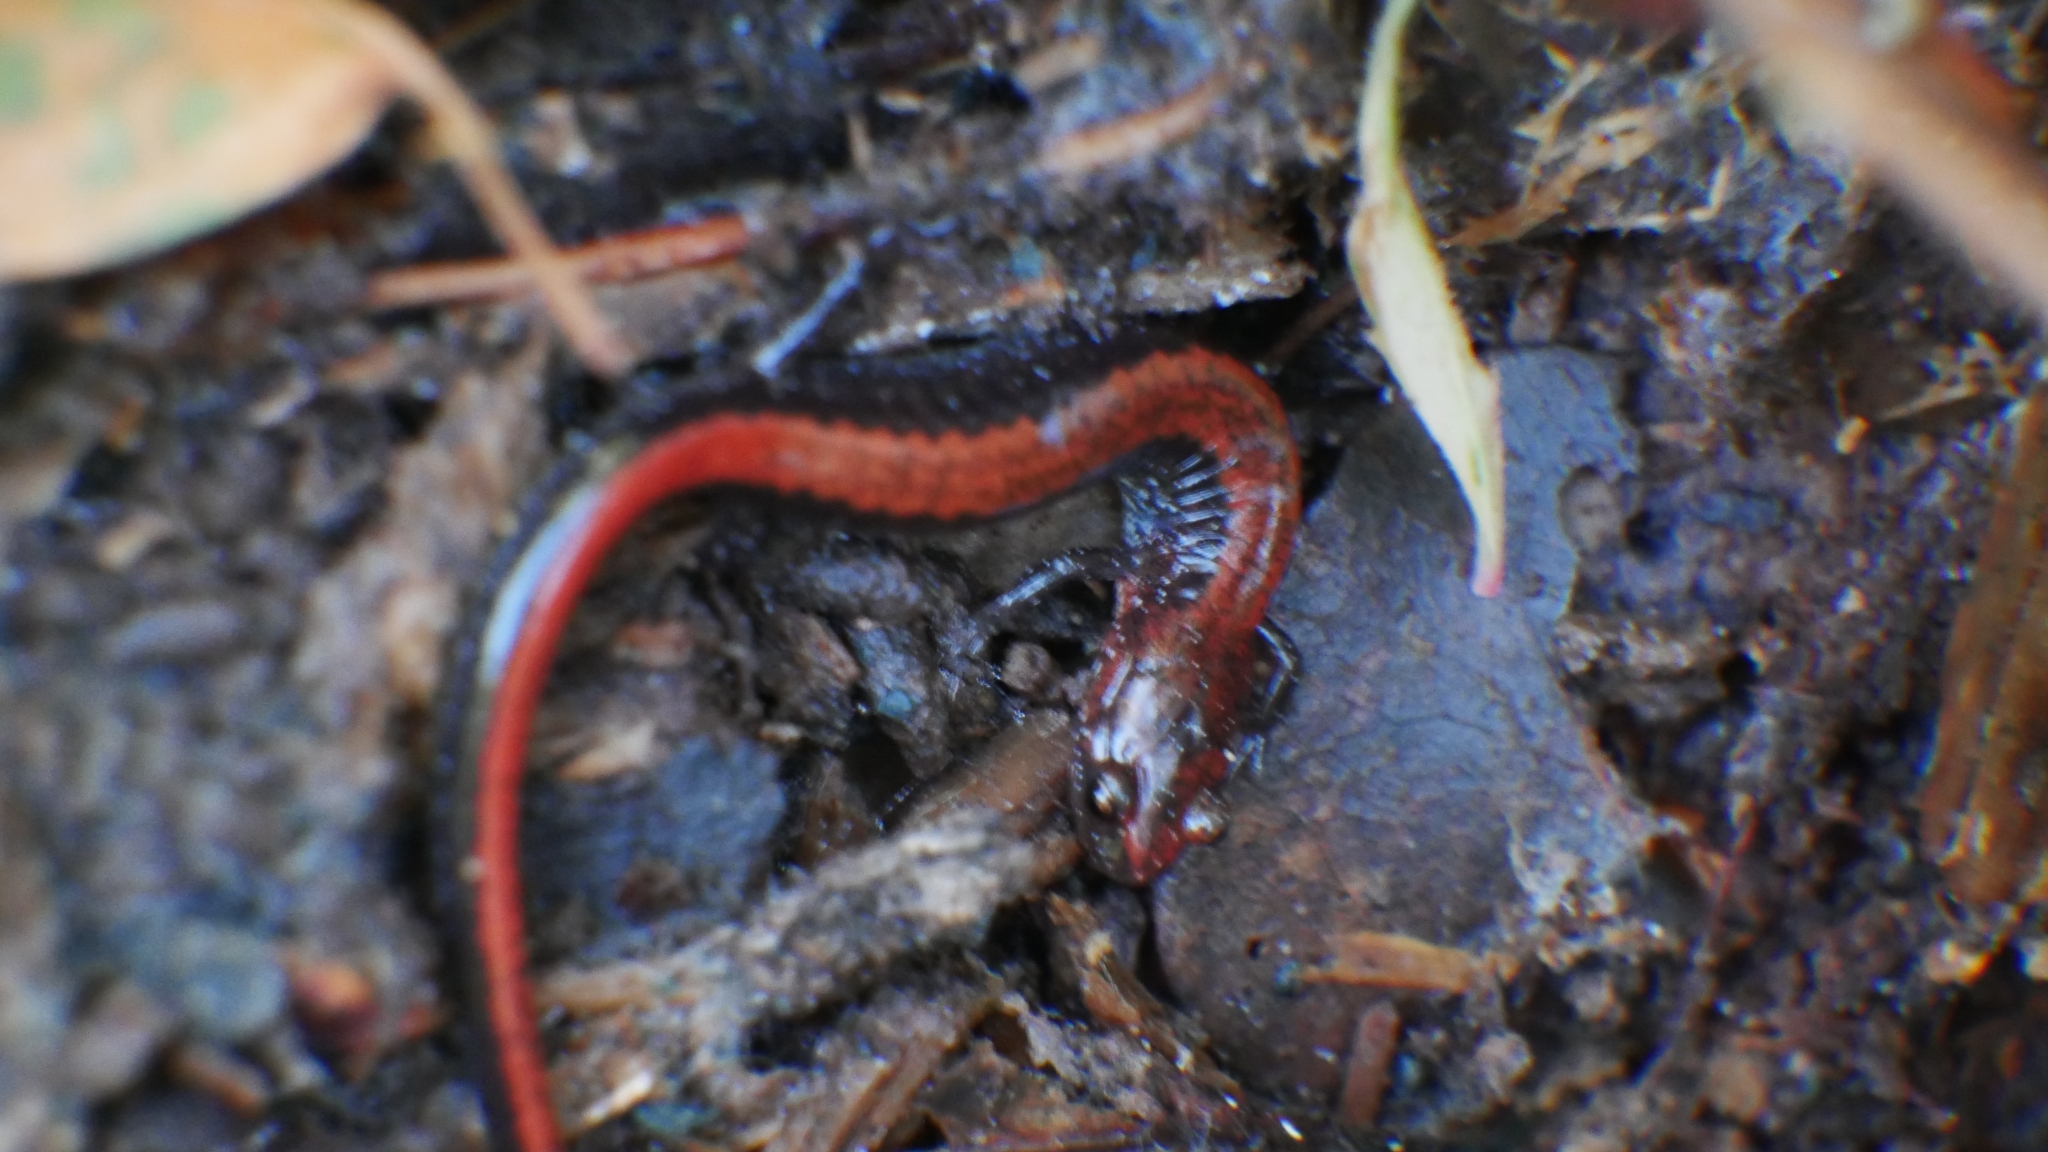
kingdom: Animalia
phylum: Chordata
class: Amphibia
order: Caudata
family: Plethodontidae
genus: Plethodon
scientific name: Plethodon cinereus
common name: Redback salamander
